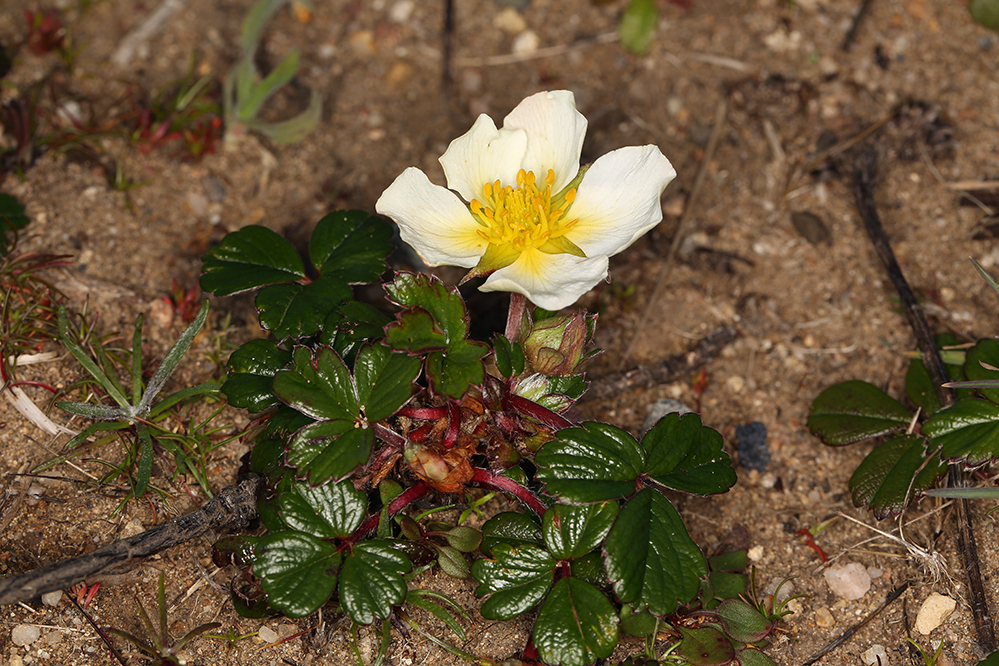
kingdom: Plantae
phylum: Tracheophyta
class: Magnoliopsida
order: Rosales
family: Rosaceae
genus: Fragaria
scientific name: Fragaria chiloensis
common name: Beach strawberry
